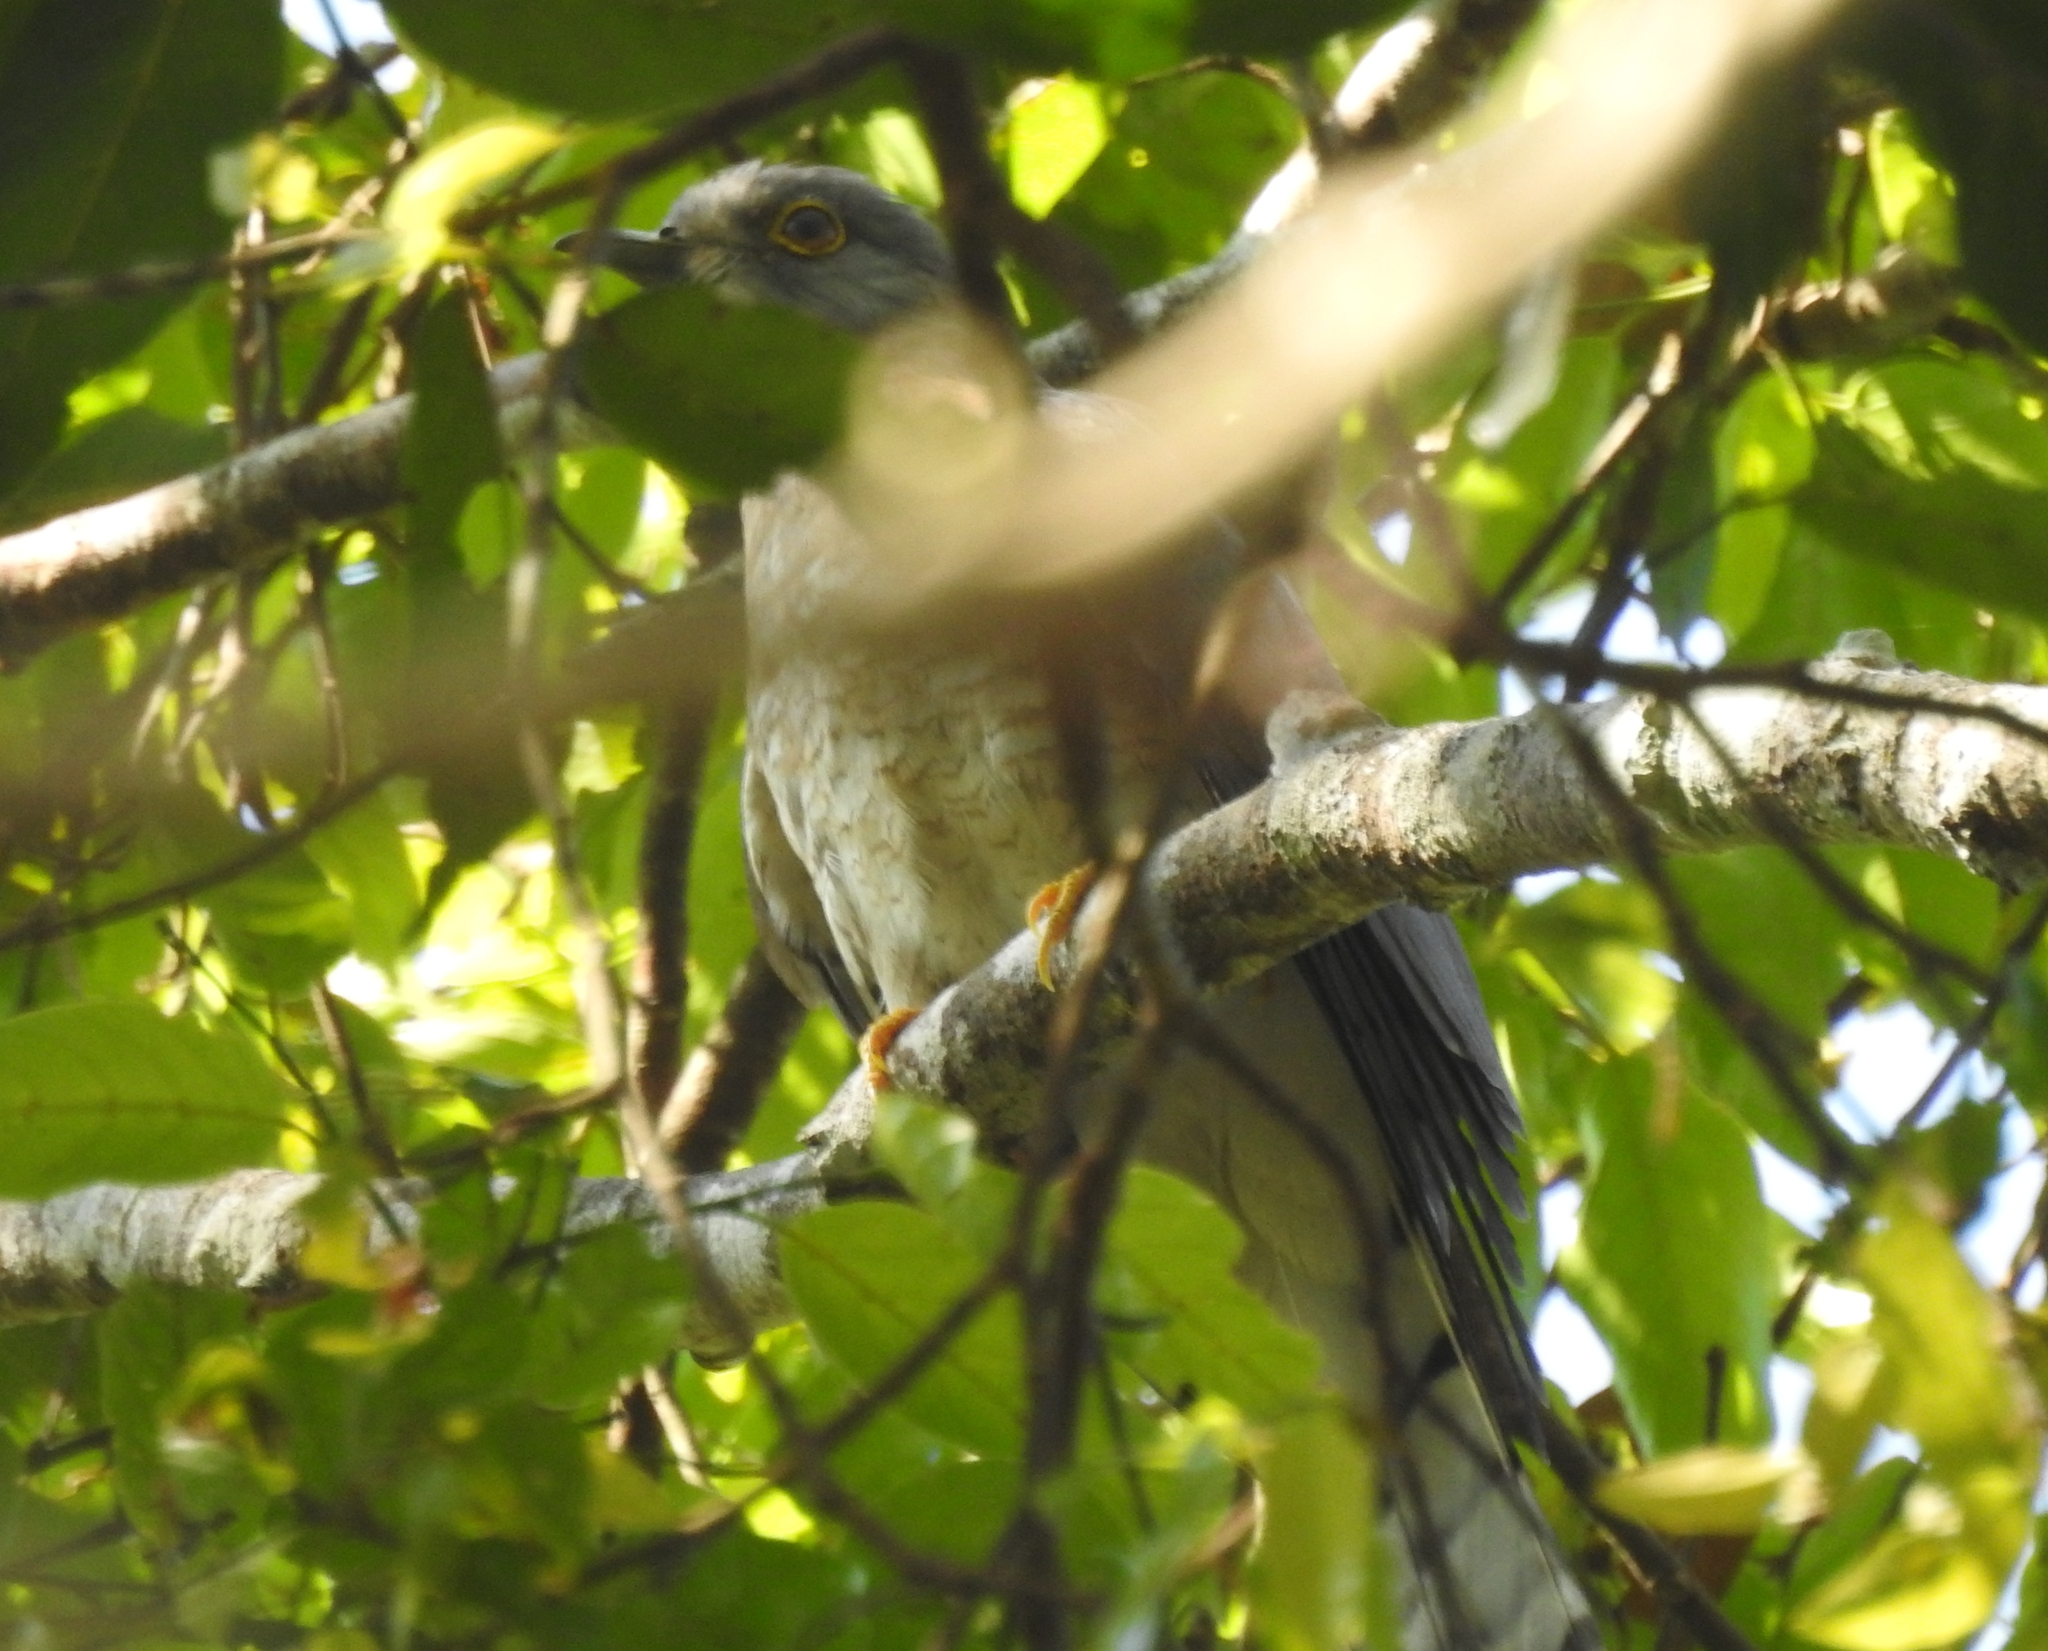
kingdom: Animalia
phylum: Chordata
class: Aves
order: Cuculiformes
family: Cuculidae
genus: Cuculus
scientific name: Cuculus varius
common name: Common hawk cuckoo
